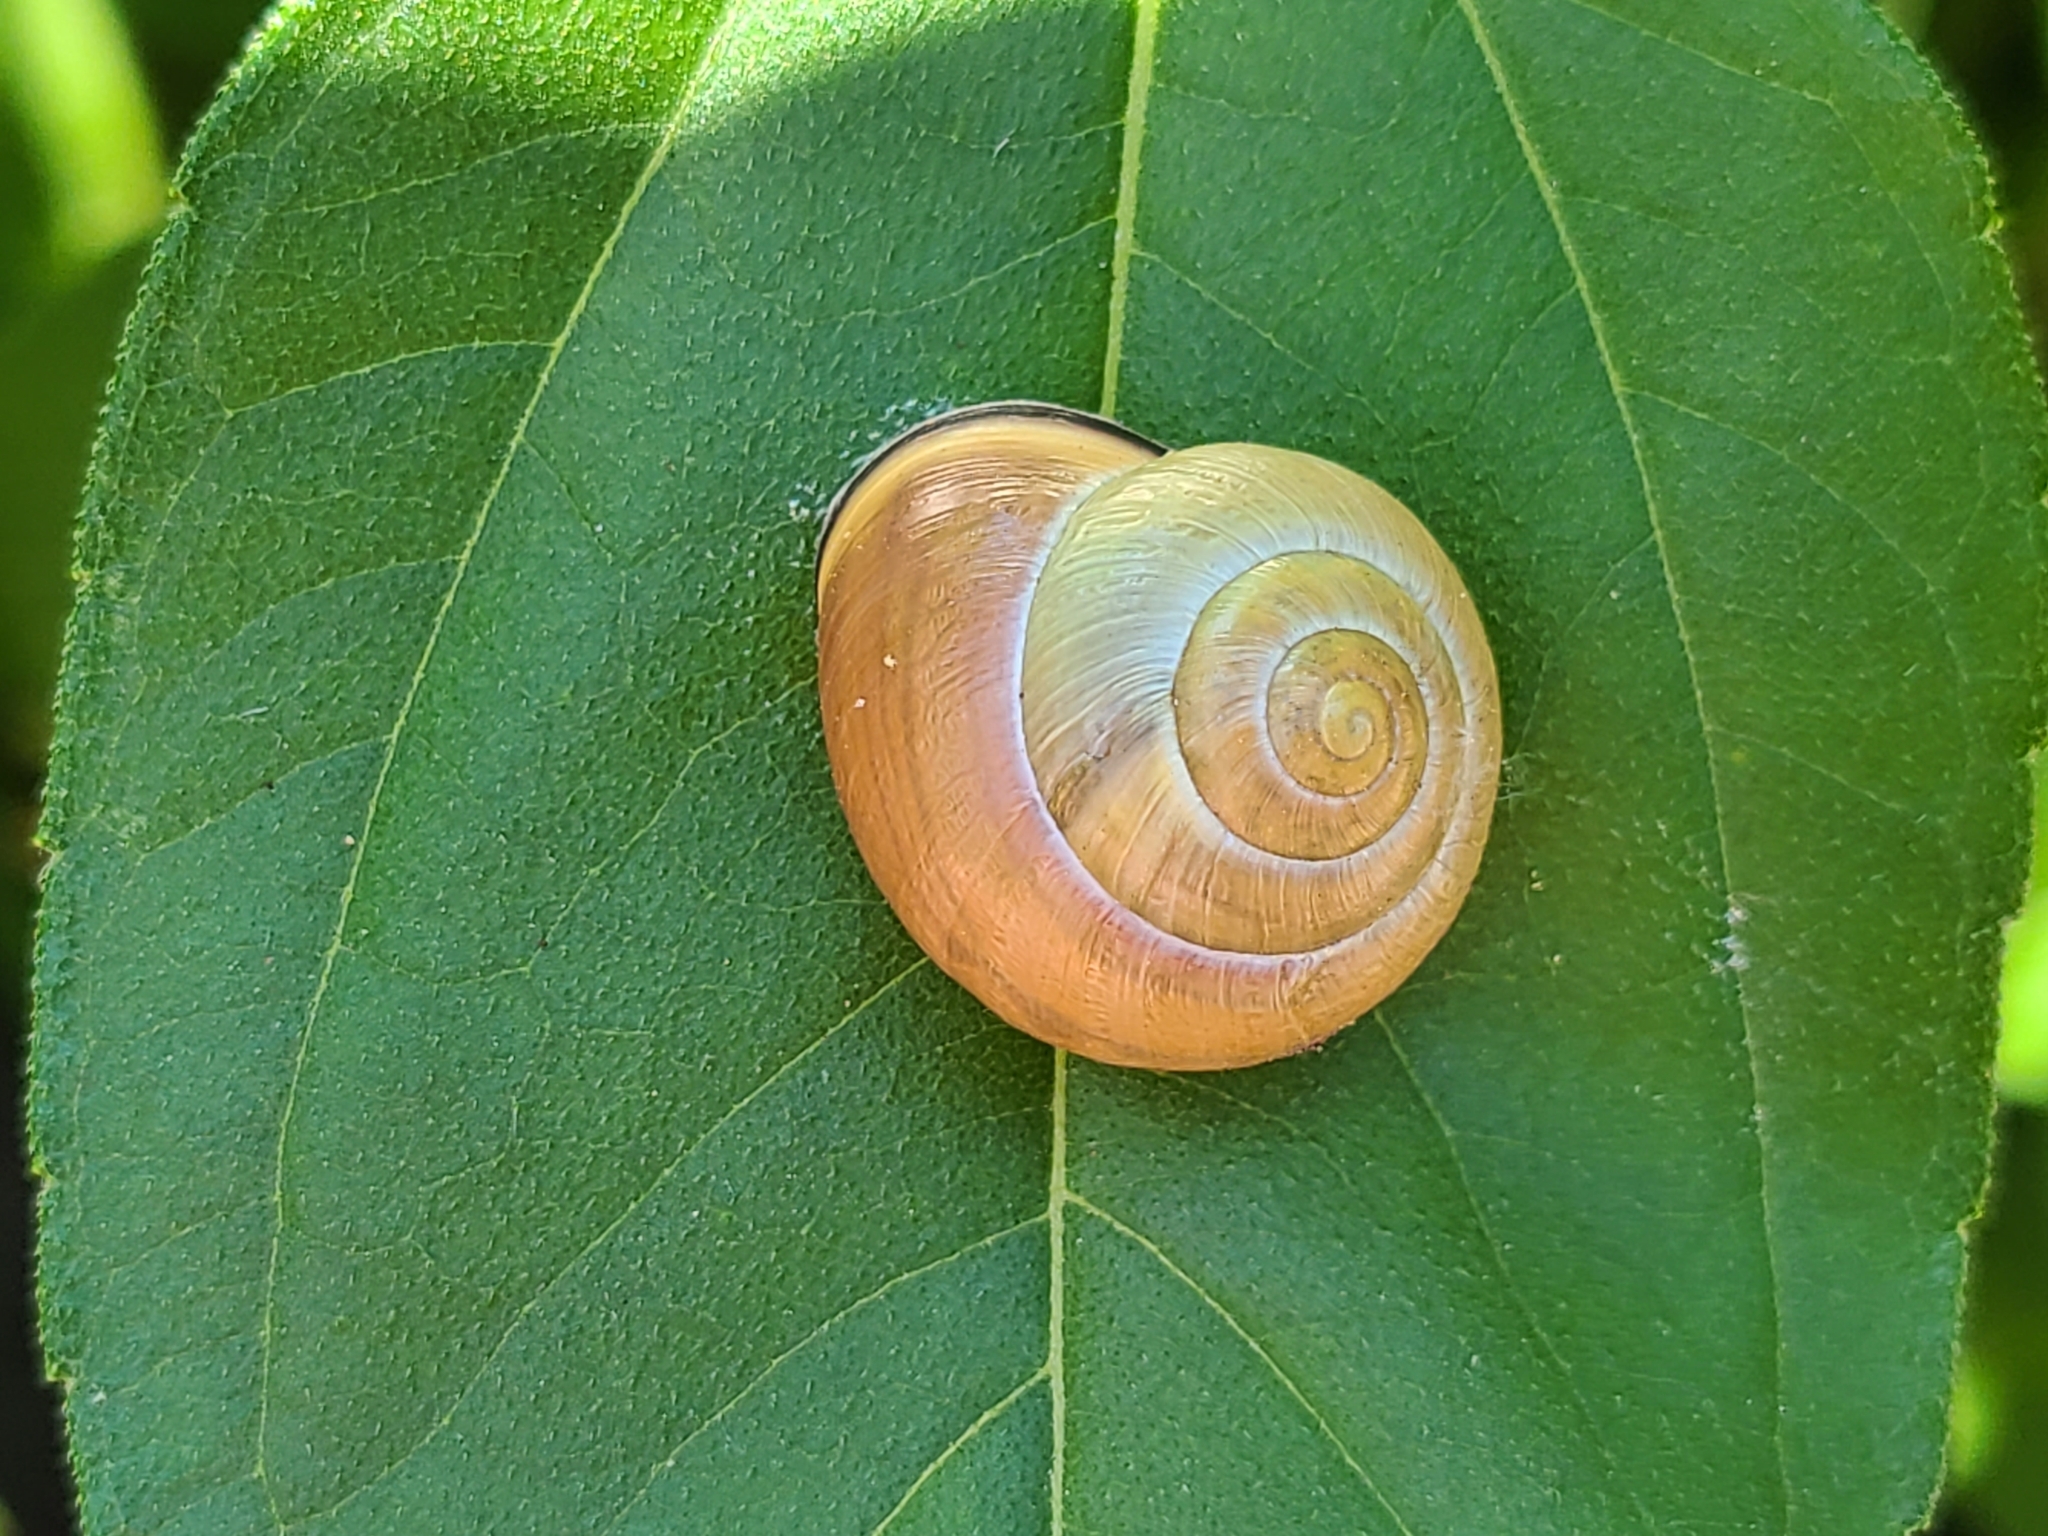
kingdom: Animalia
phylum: Mollusca
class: Gastropoda
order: Stylommatophora
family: Helicidae
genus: Cepaea
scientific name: Cepaea nemoralis
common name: Grovesnail
